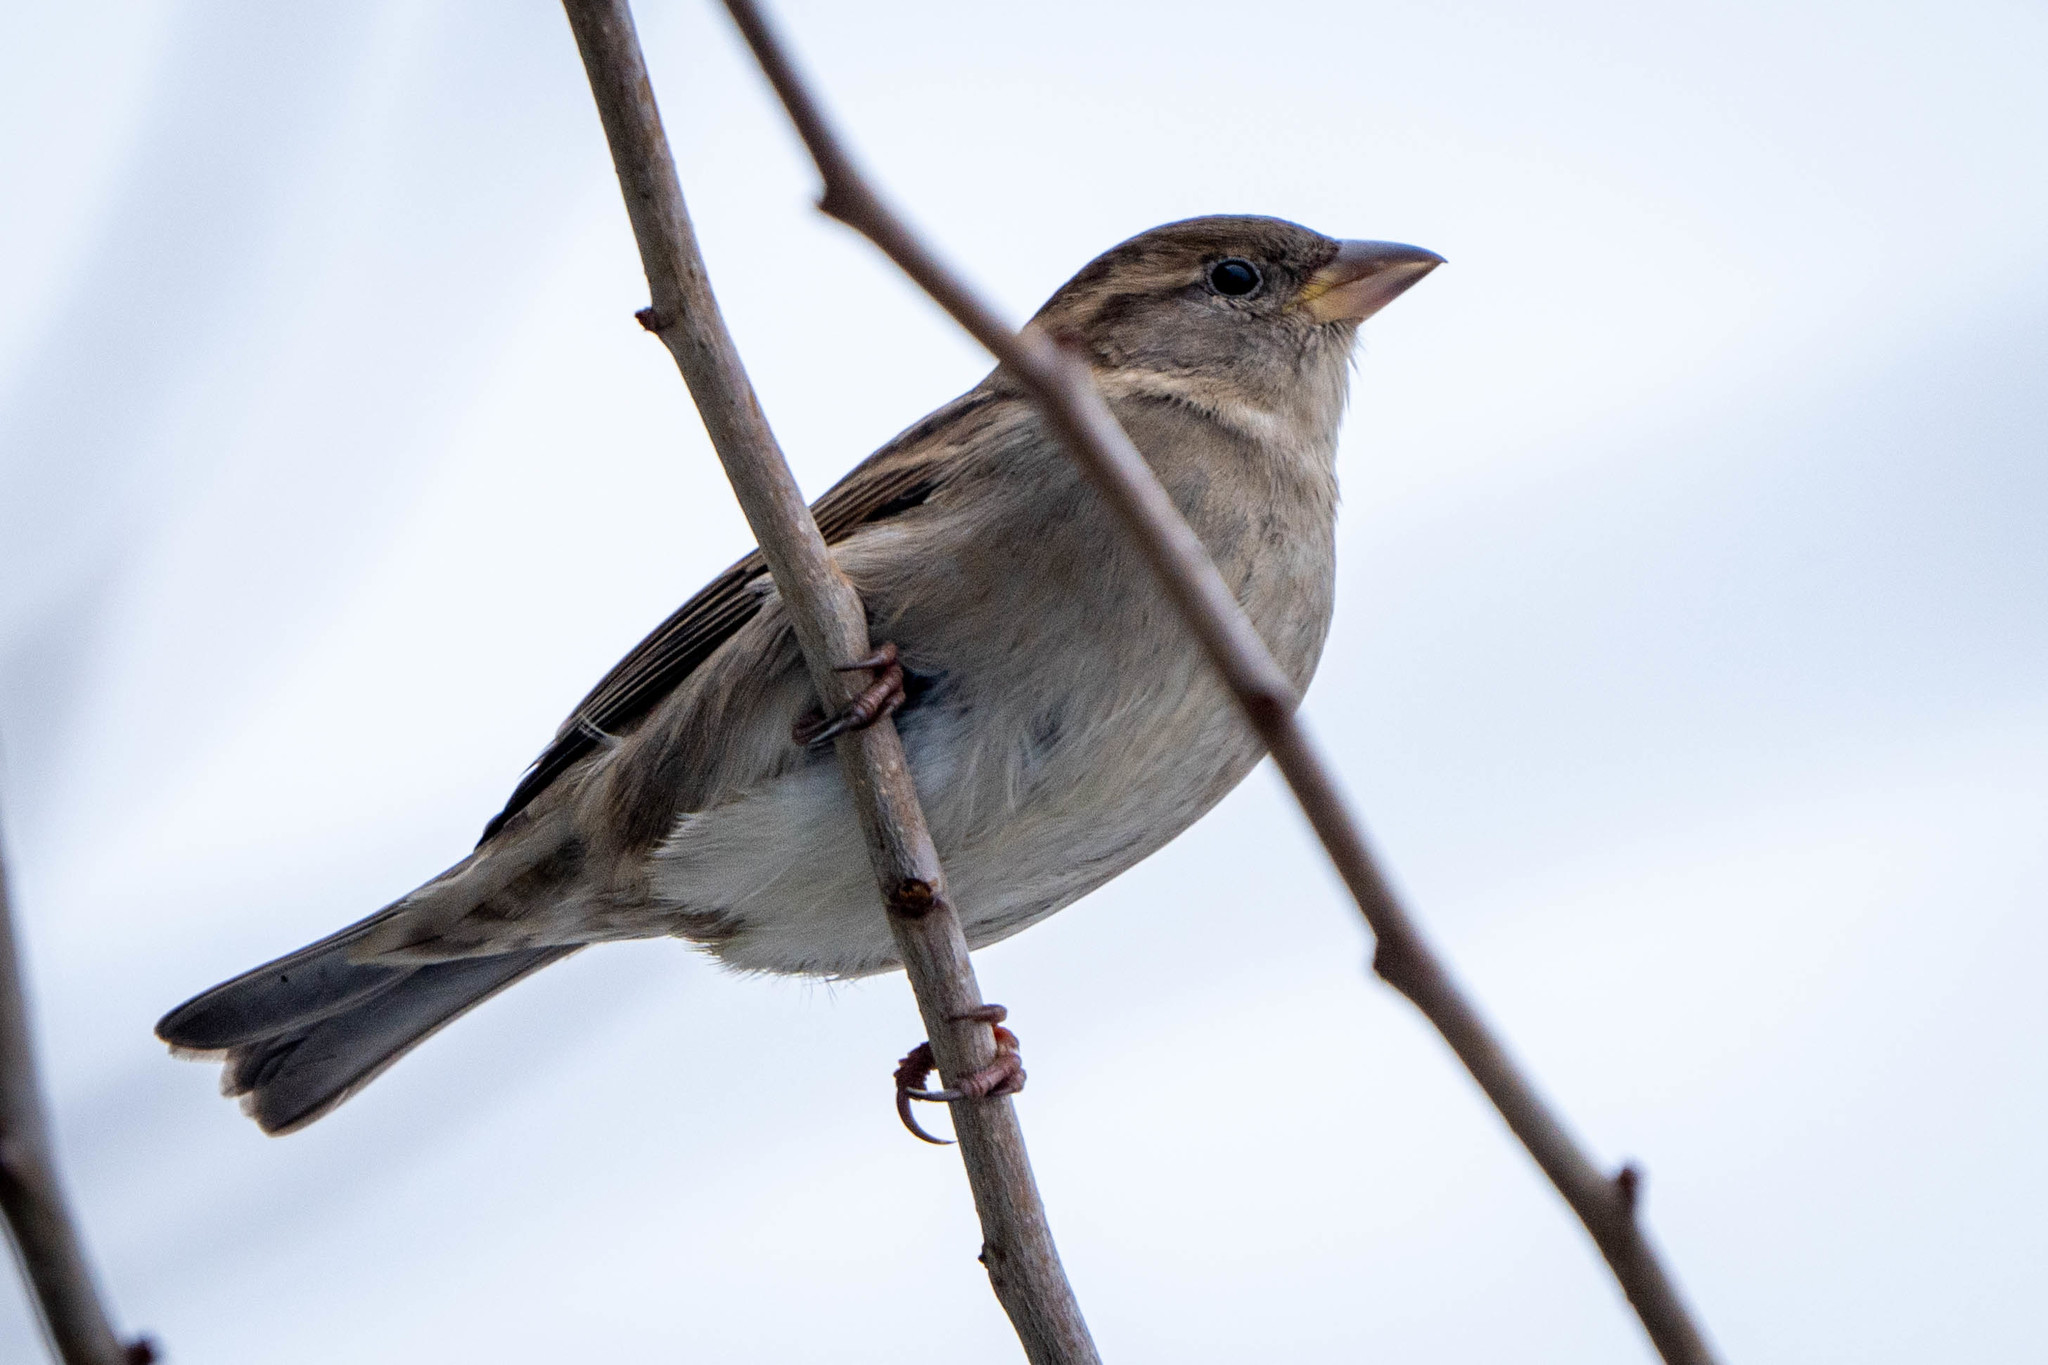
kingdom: Animalia
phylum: Chordata
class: Aves
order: Passeriformes
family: Passeridae
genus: Passer
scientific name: Passer domesticus
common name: House sparrow
